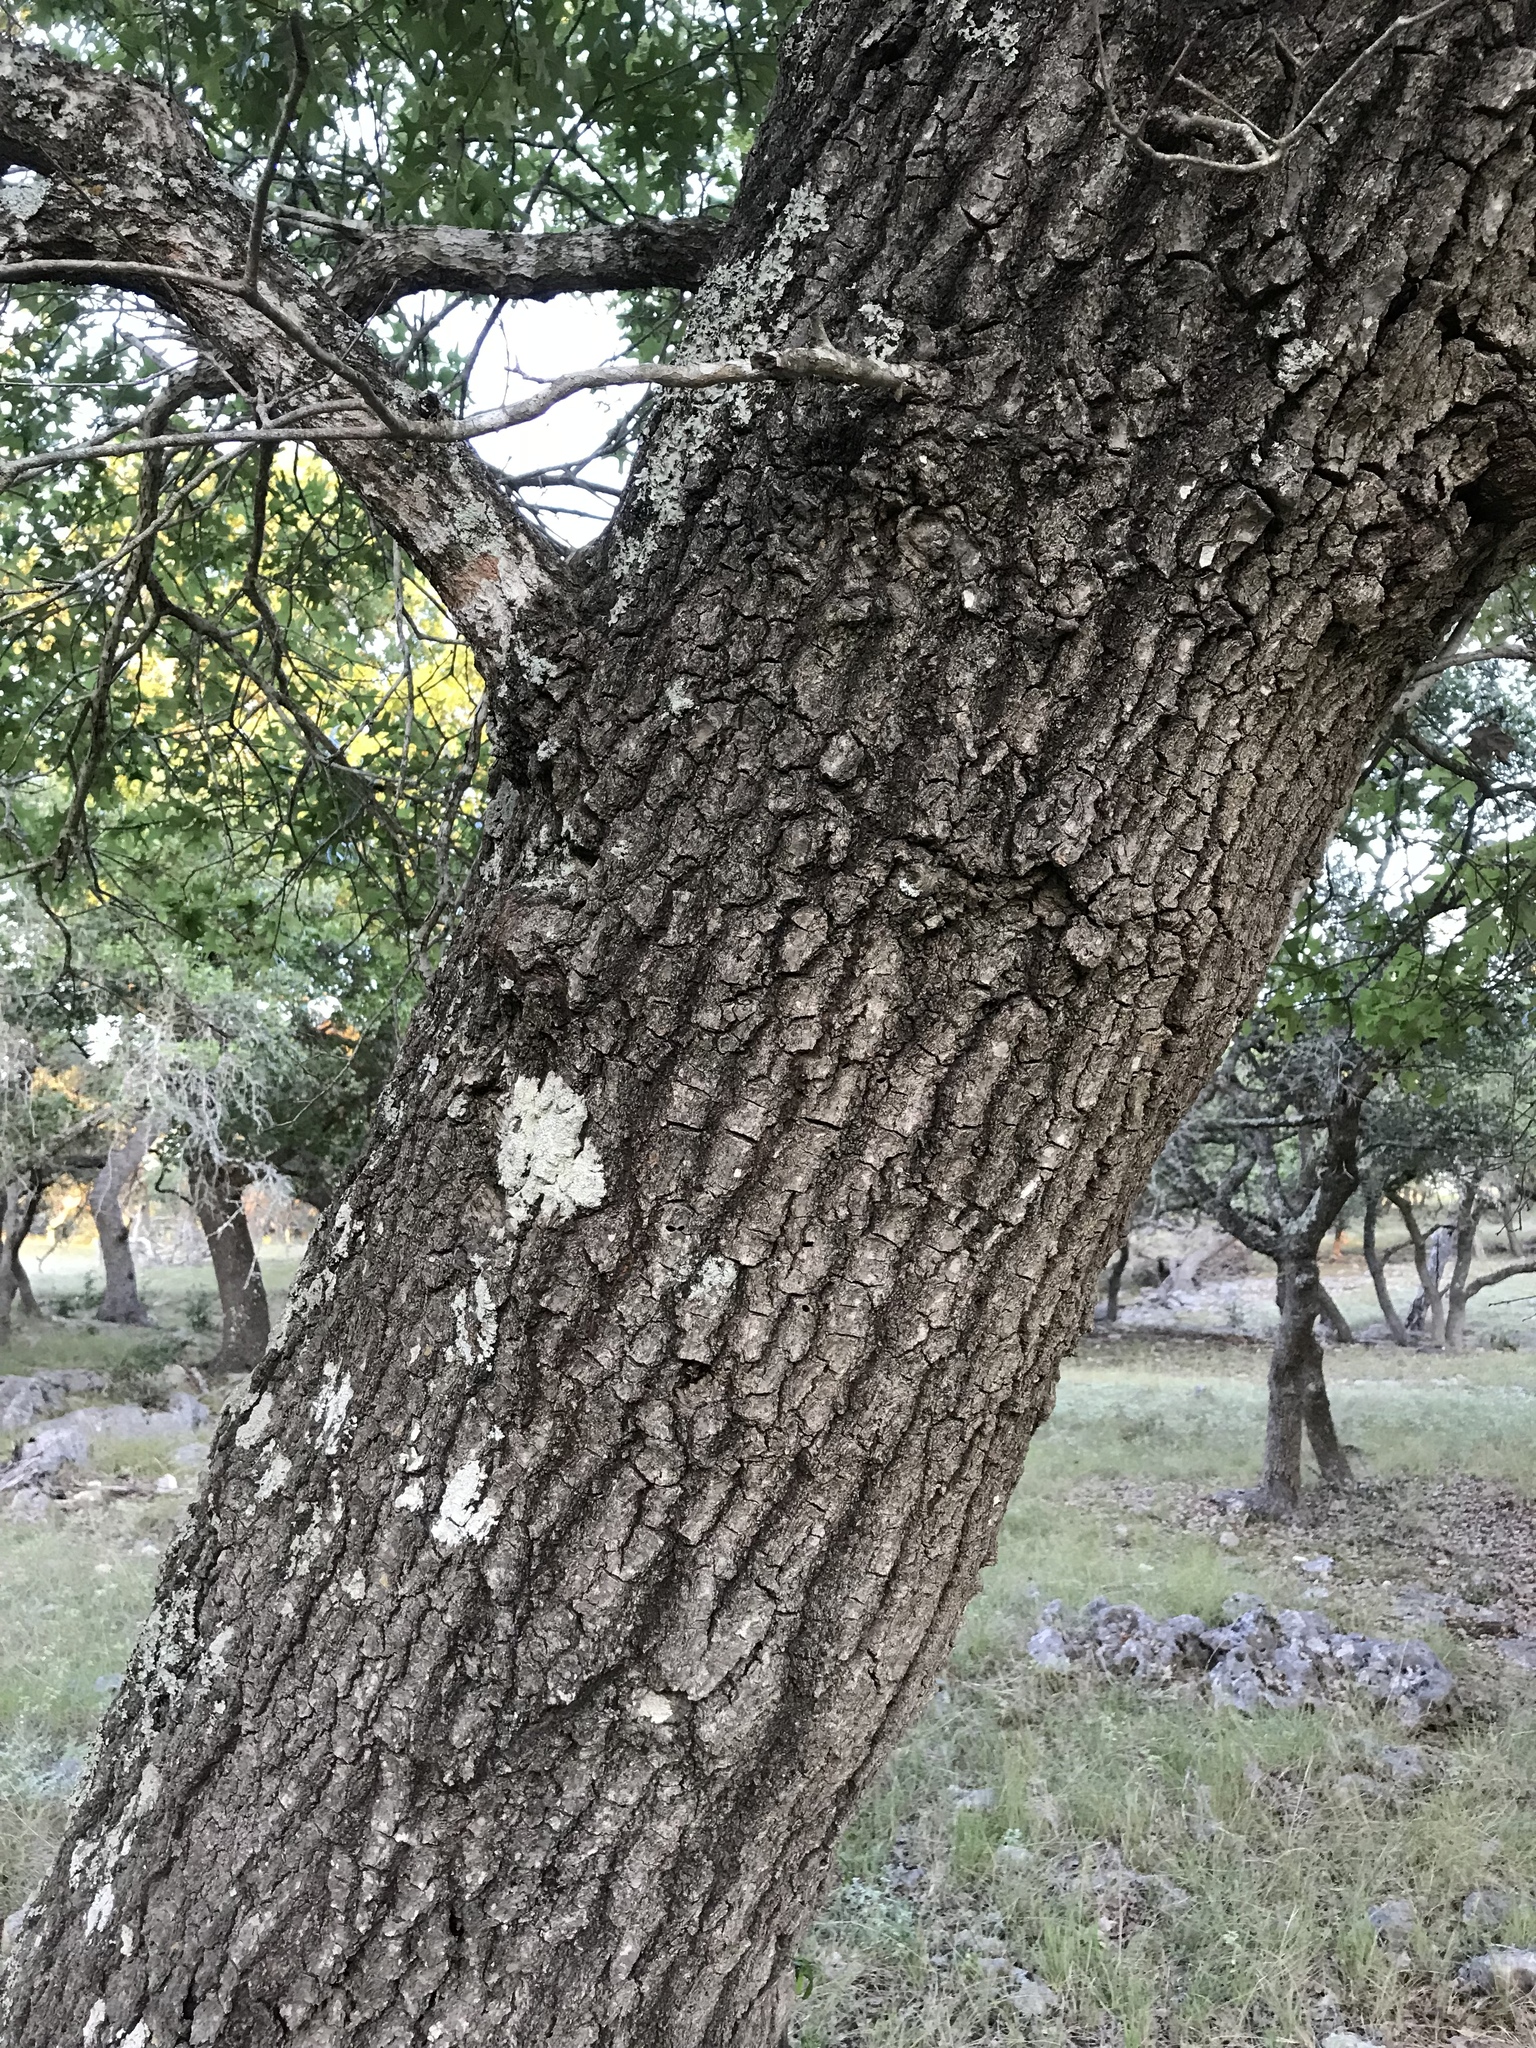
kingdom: Plantae
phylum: Tracheophyta
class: Magnoliopsida
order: Fagales
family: Fagaceae
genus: Quercus
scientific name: Quercus buckleyi
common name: Buckley oak
